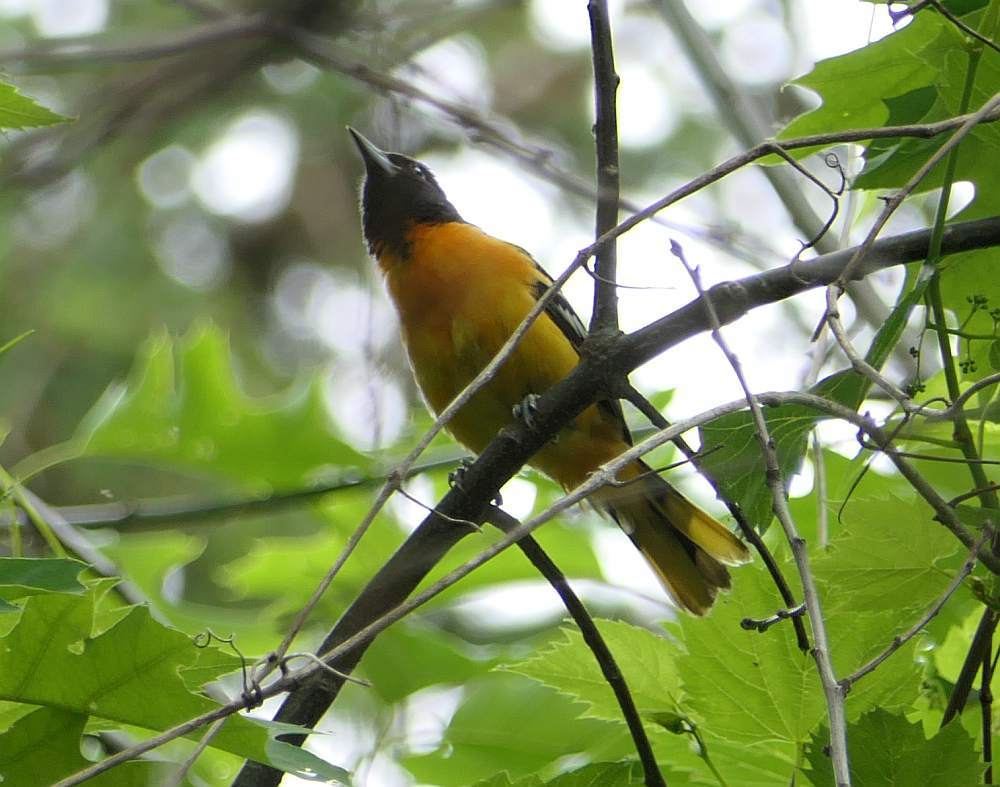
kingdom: Animalia
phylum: Chordata
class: Aves
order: Passeriformes
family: Icteridae
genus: Icterus
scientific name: Icterus galbula
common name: Baltimore oriole
